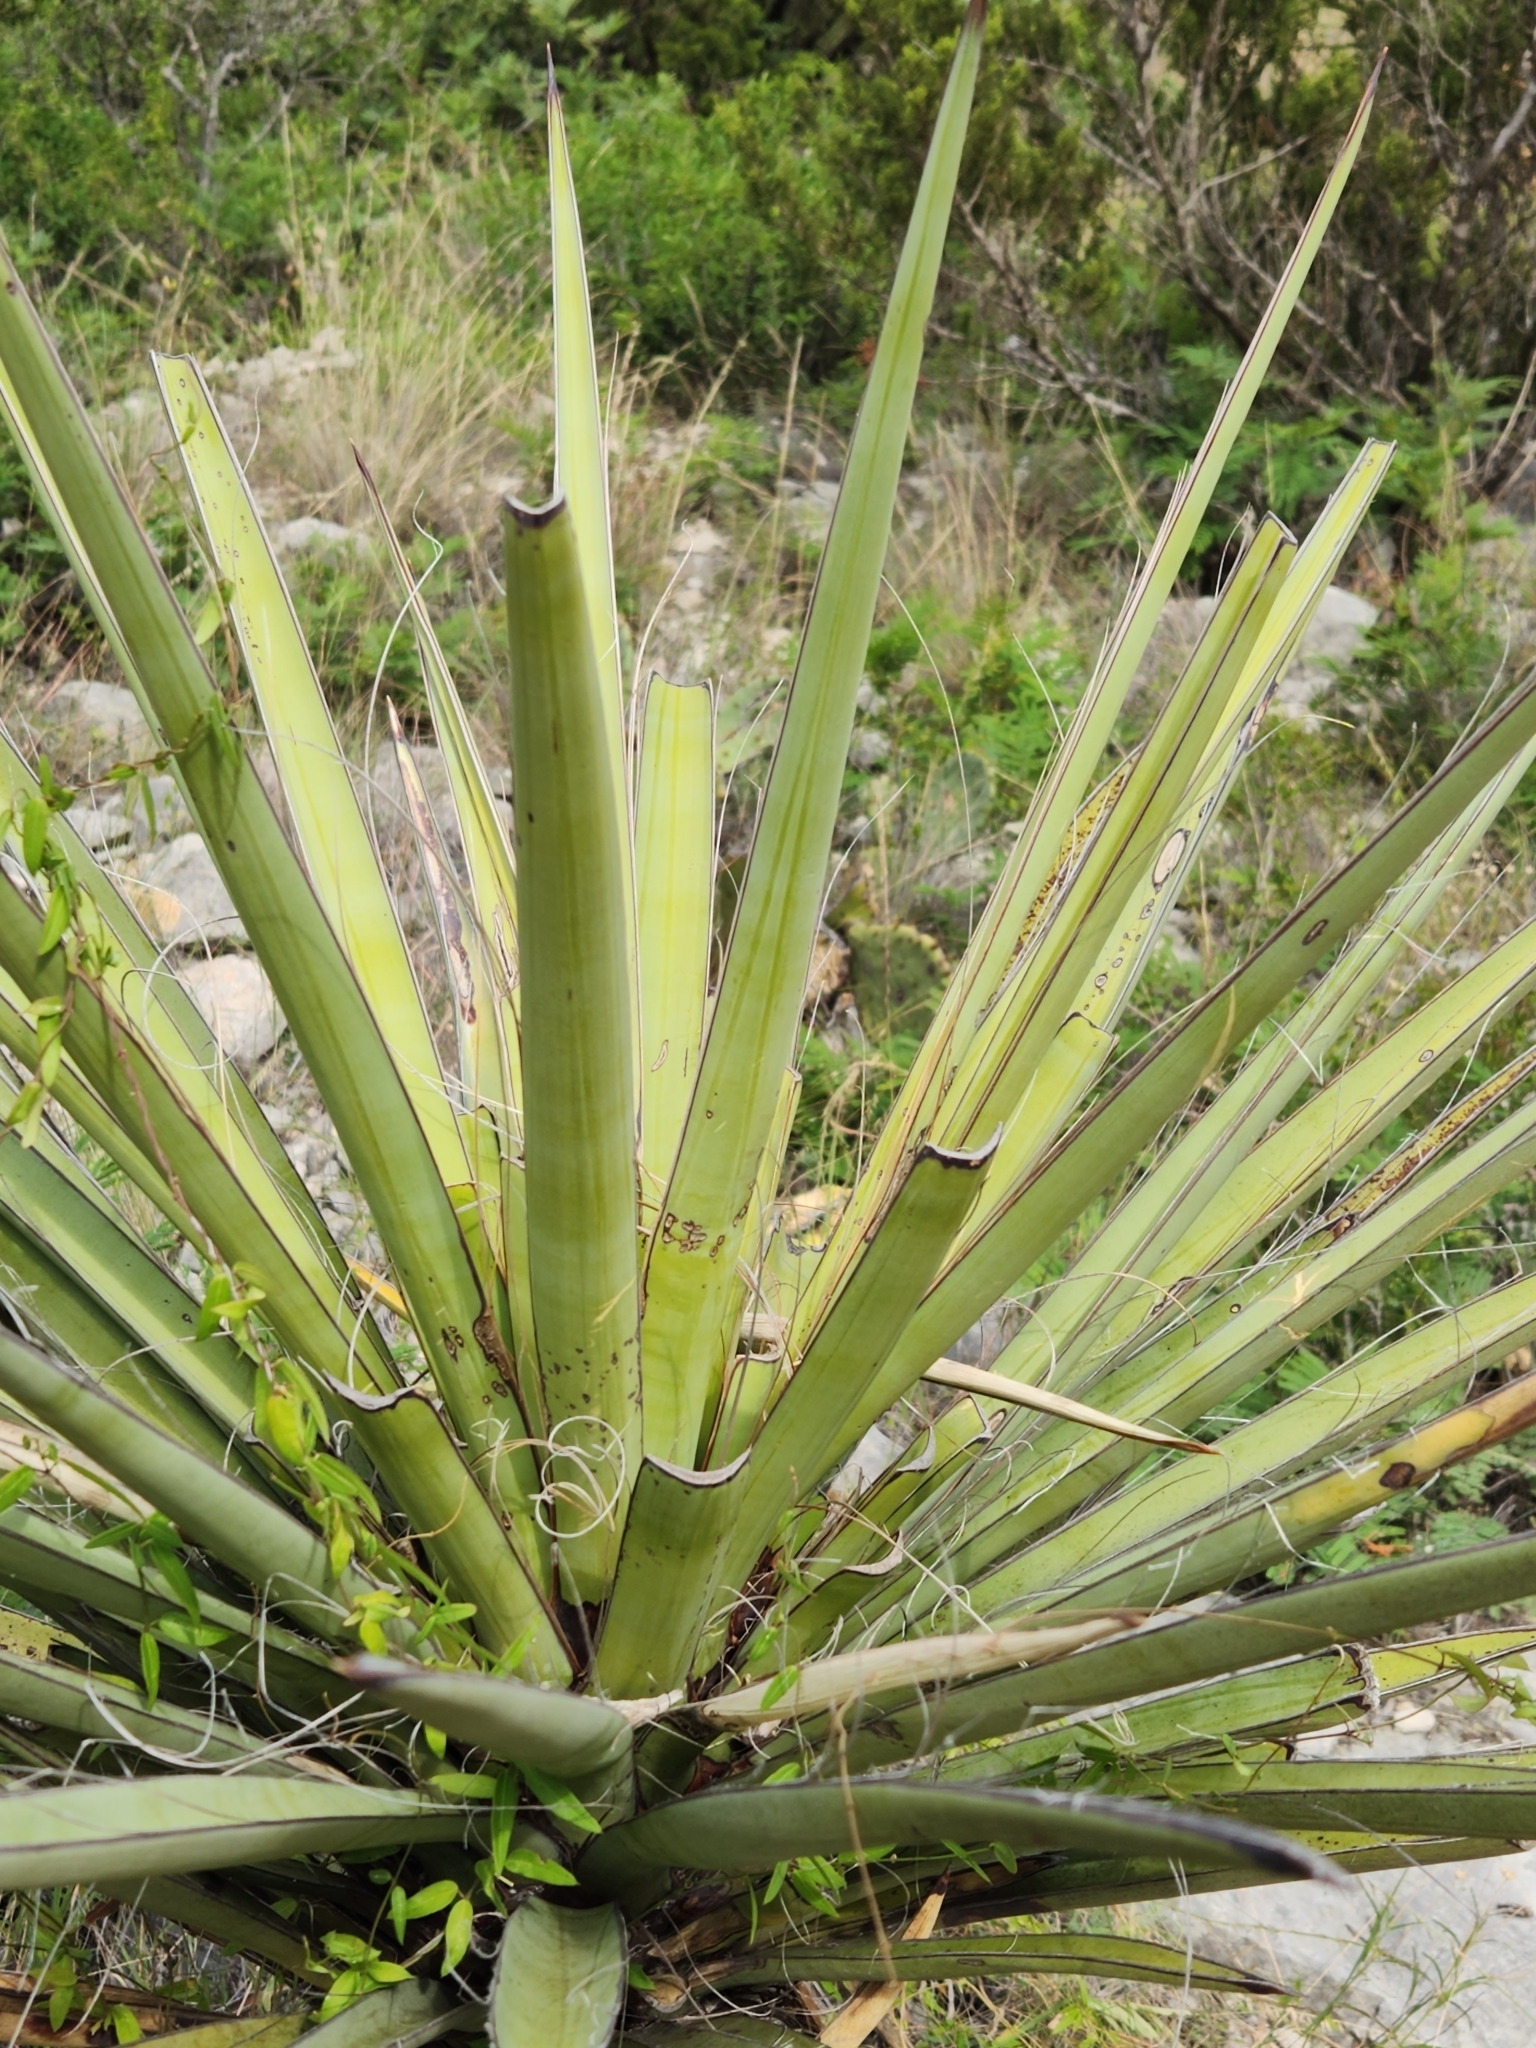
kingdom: Plantae
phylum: Tracheophyta
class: Liliopsida
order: Asparagales
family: Asparagaceae
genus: Yucca
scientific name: Yucca treculiana
